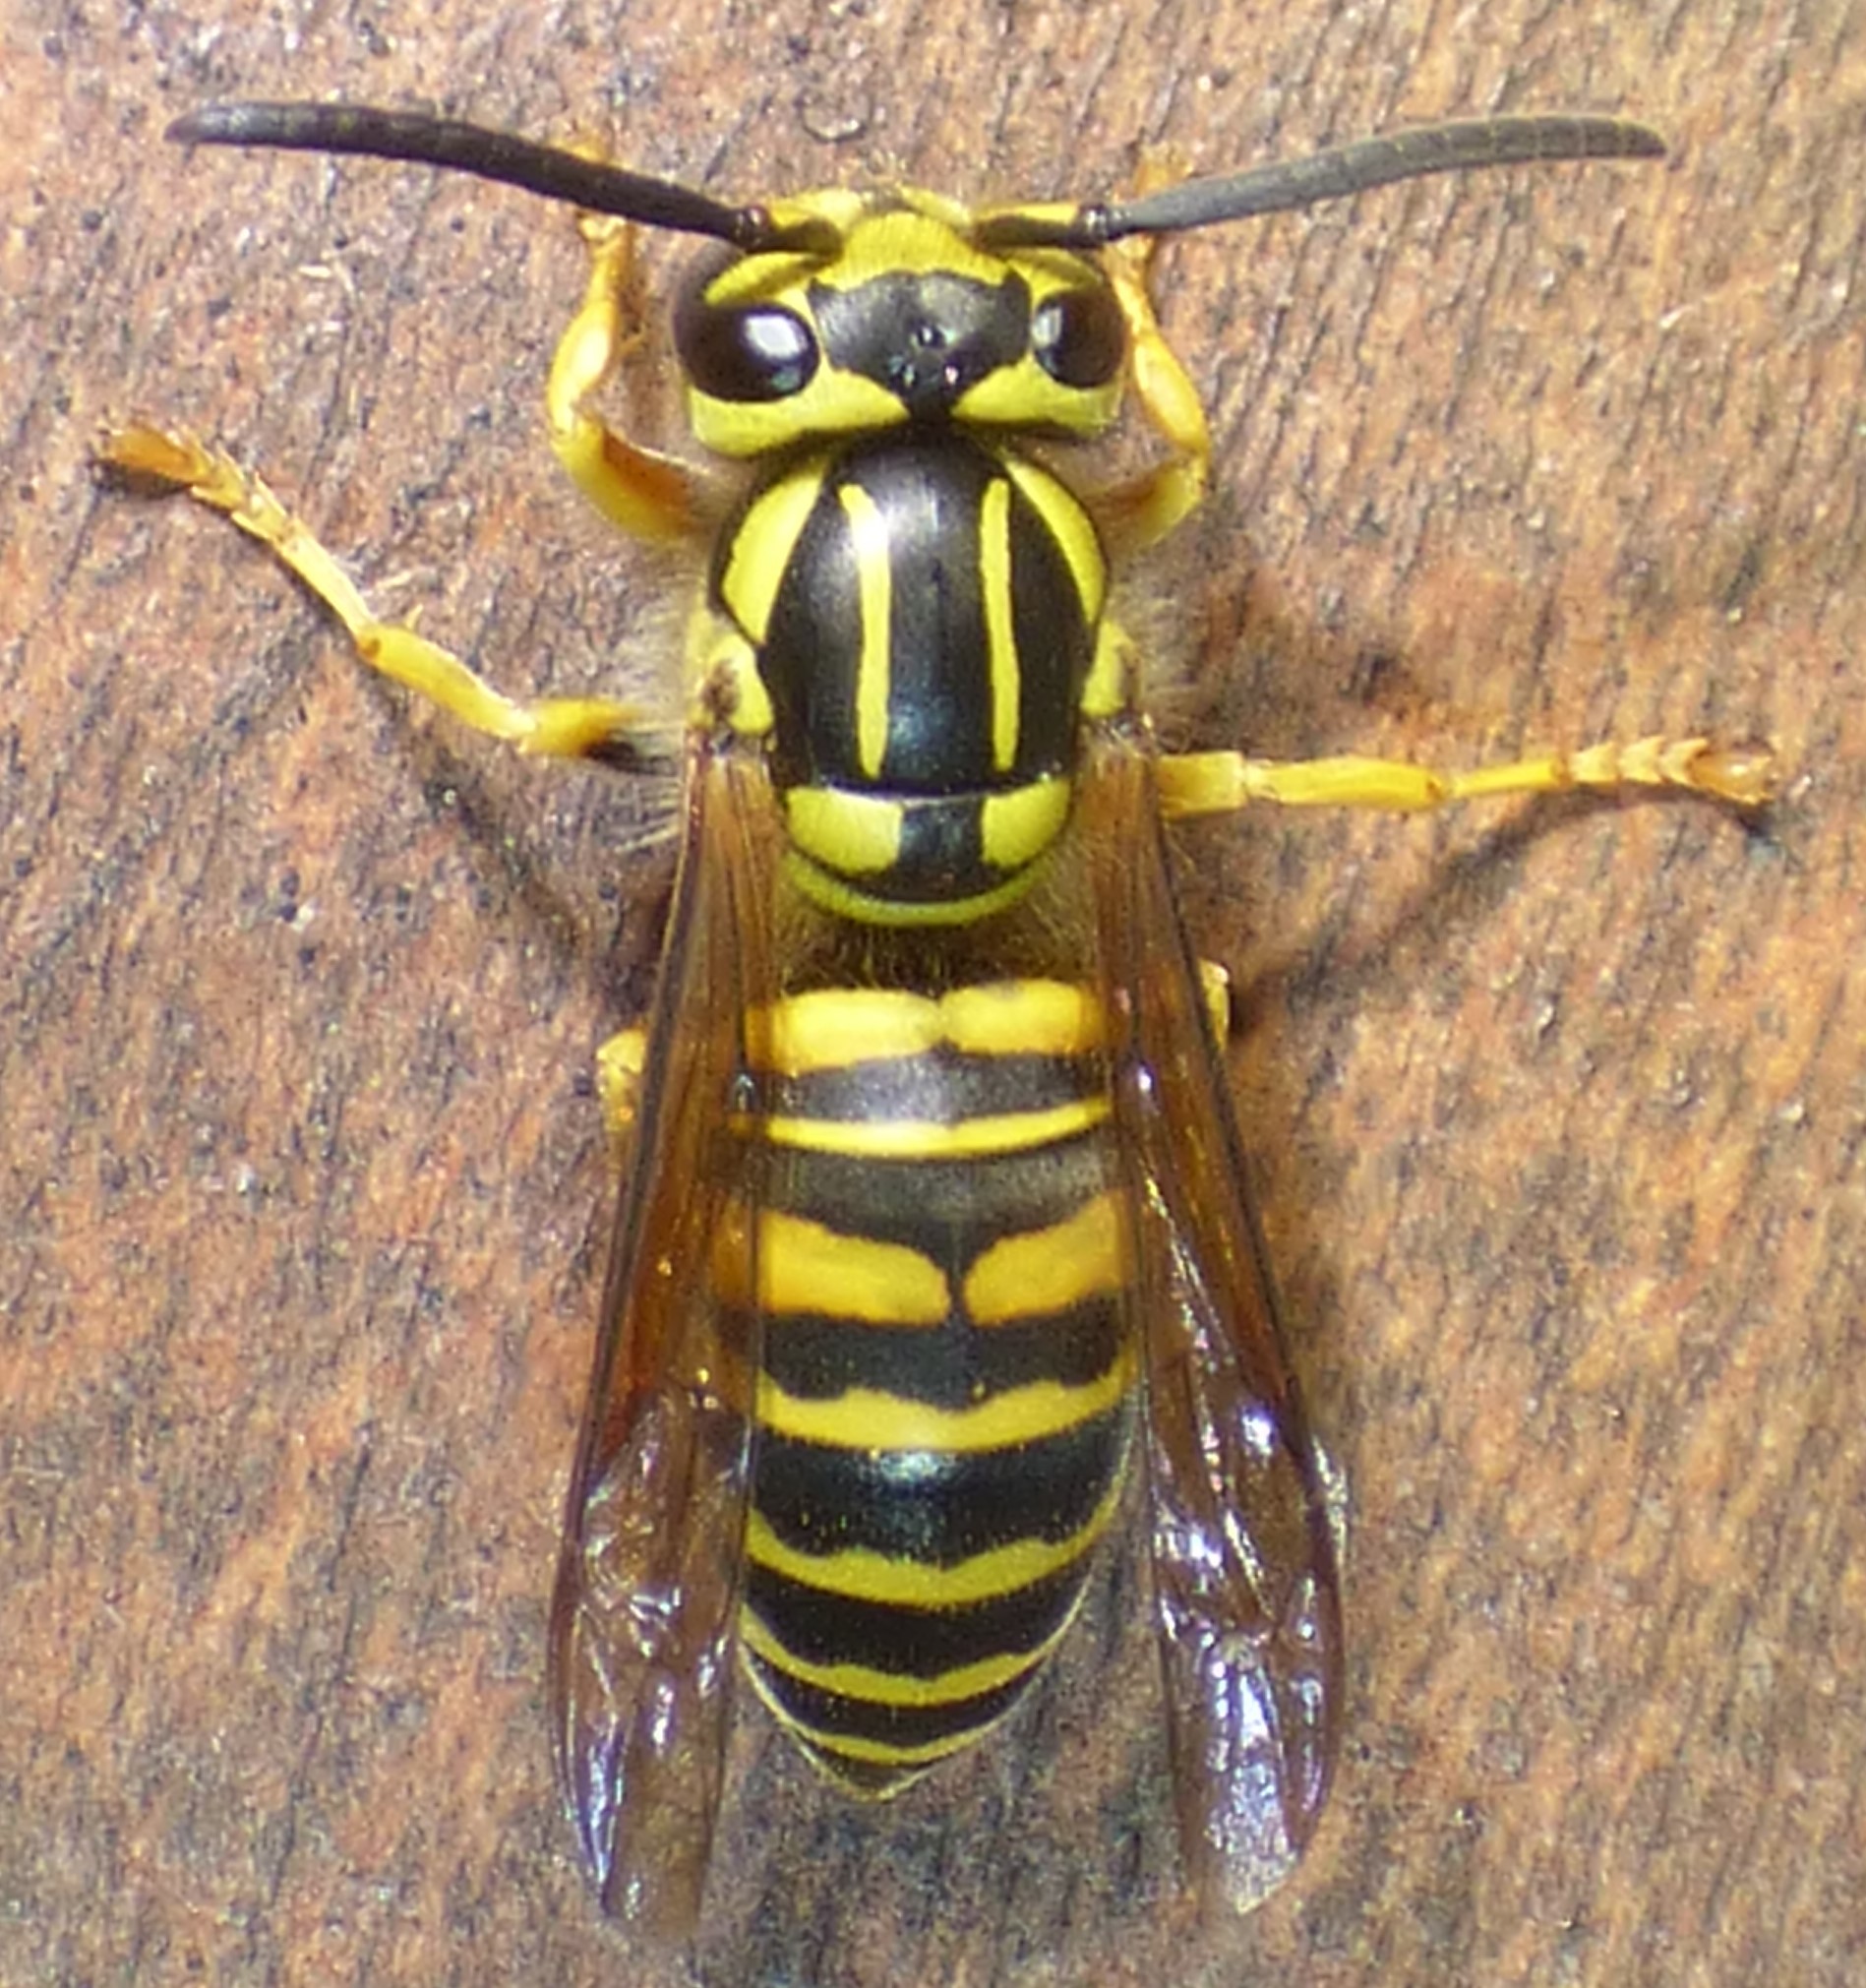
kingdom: Animalia
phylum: Arthropoda
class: Insecta
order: Hymenoptera
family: Vespidae
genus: Vespula
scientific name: Vespula squamosa
